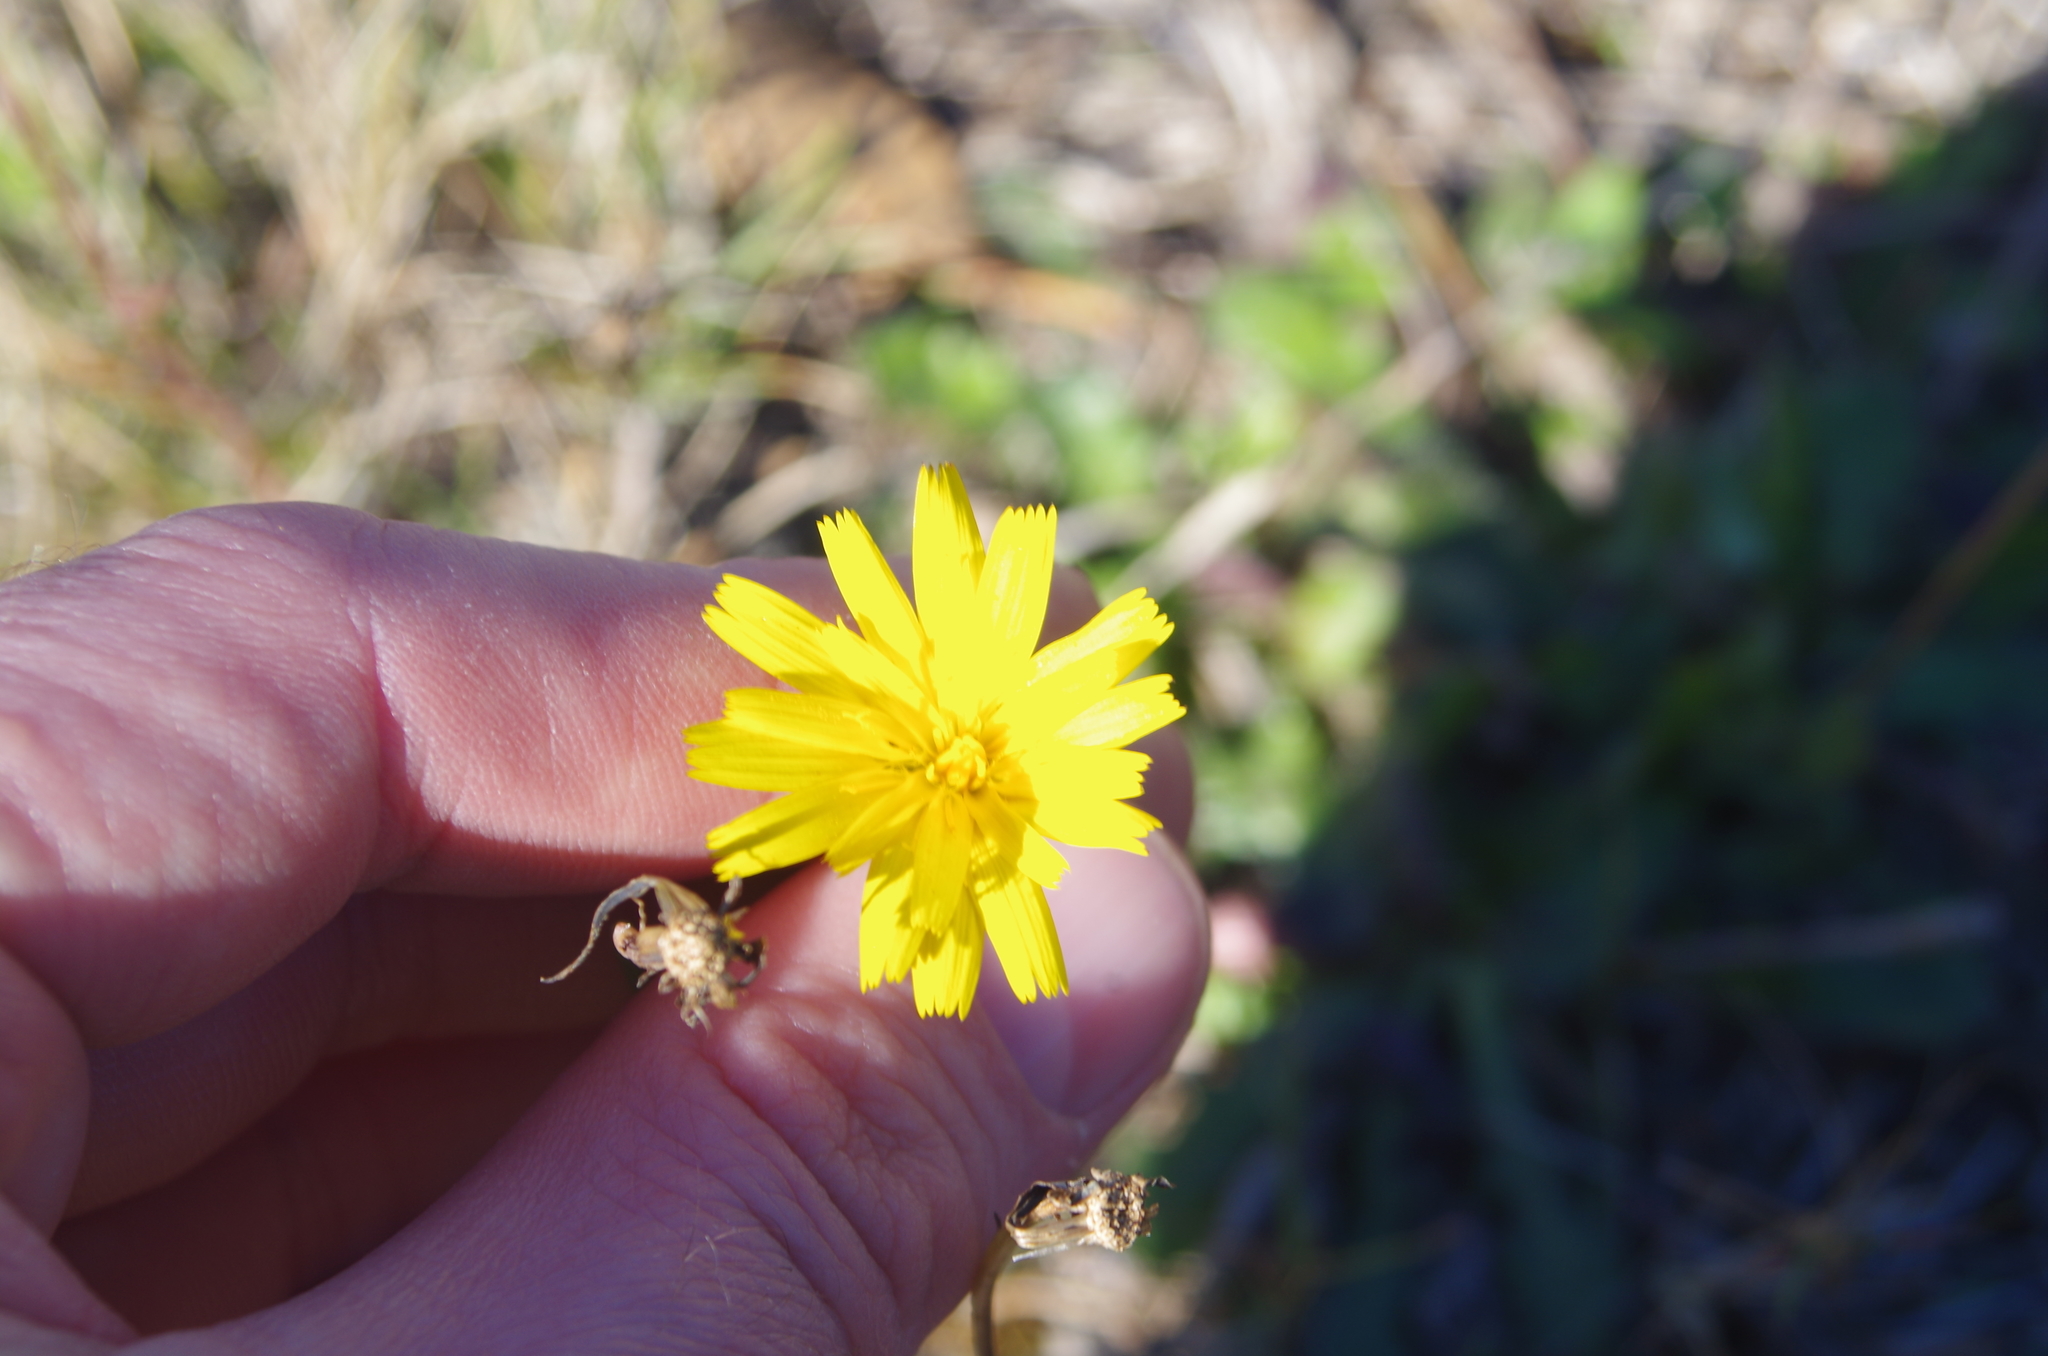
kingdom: Plantae
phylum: Tracheophyta
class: Magnoliopsida
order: Asterales
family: Asteraceae
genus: Hypochaeris
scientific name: Hypochaeris radicata
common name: Flatweed
